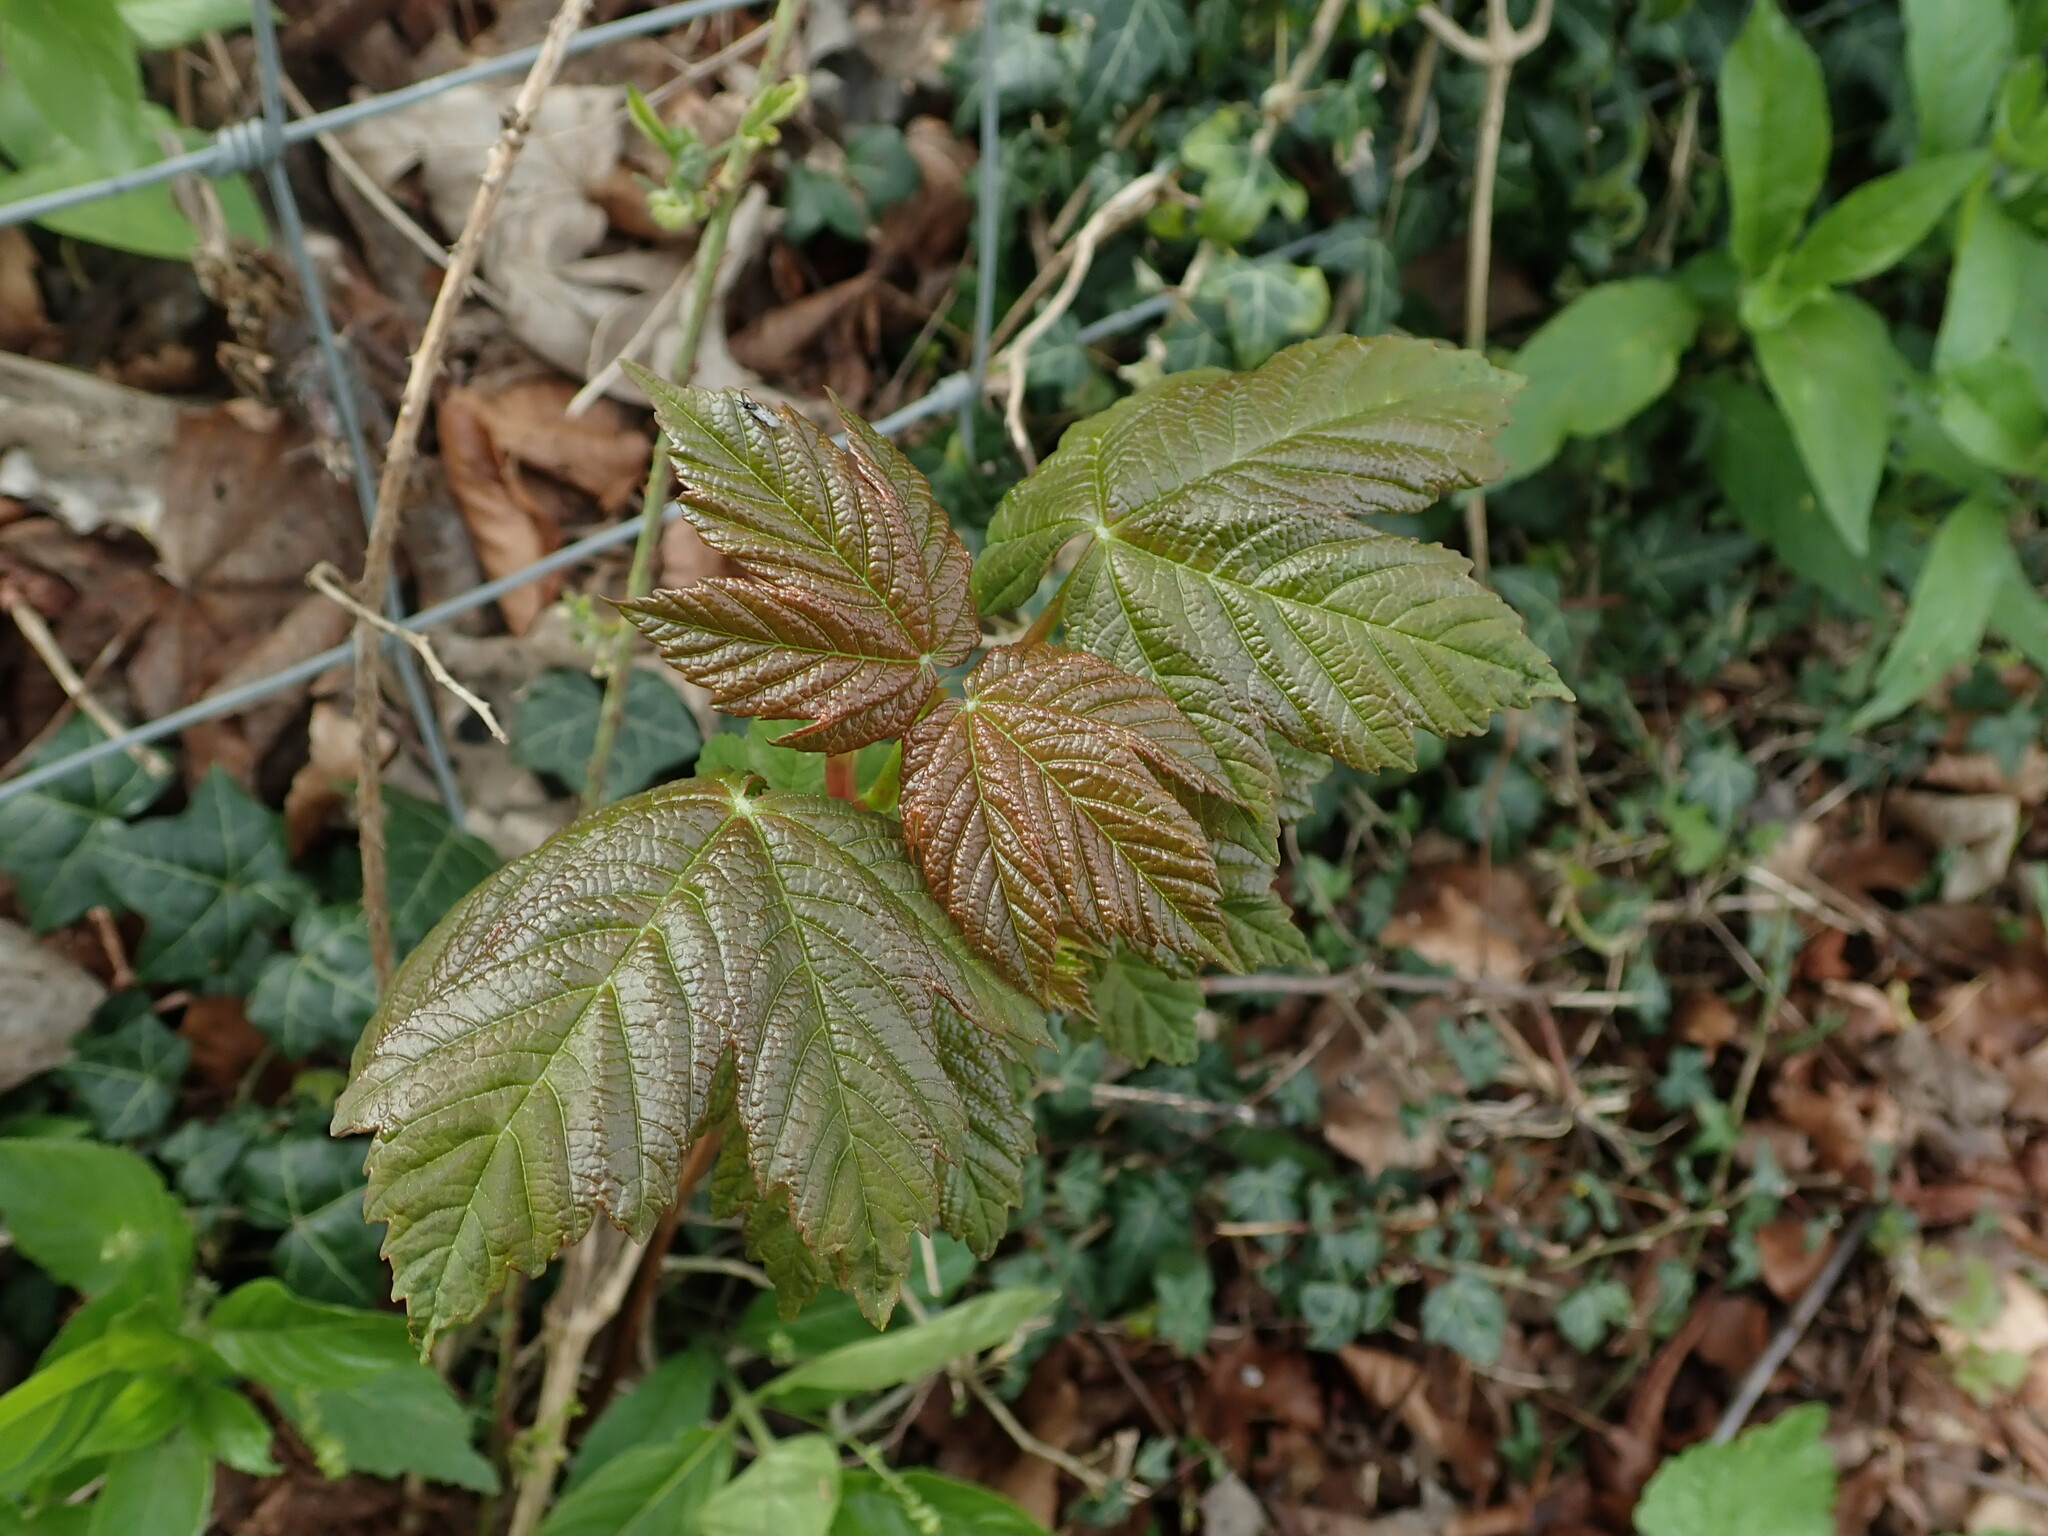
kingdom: Plantae
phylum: Tracheophyta
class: Magnoliopsida
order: Sapindales
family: Sapindaceae
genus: Acer
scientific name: Acer pseudoplatanus
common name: Sycamore
